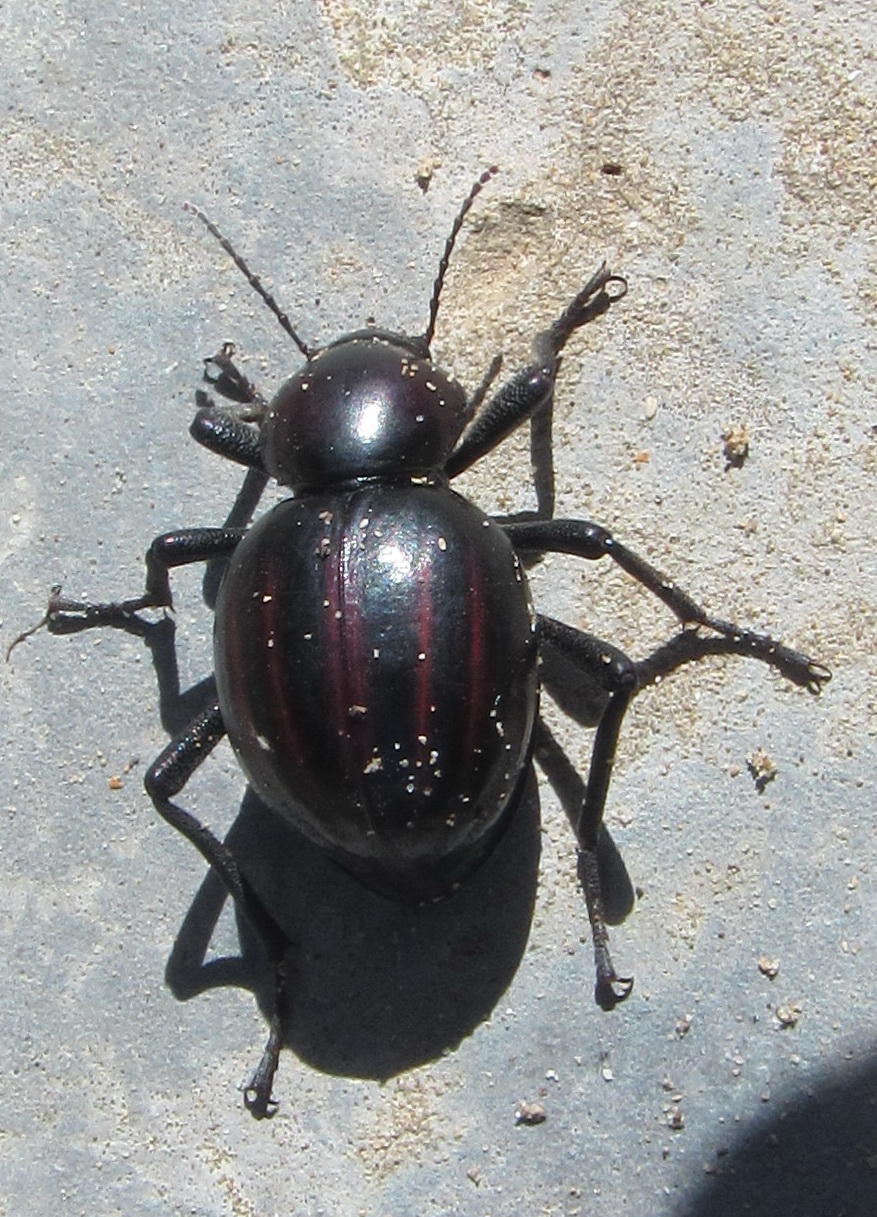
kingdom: Animalia
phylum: Arthropoda
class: Insecta
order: Coleoptera
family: Tenebrionidae
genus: Mariazofia
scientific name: Mariazofia
